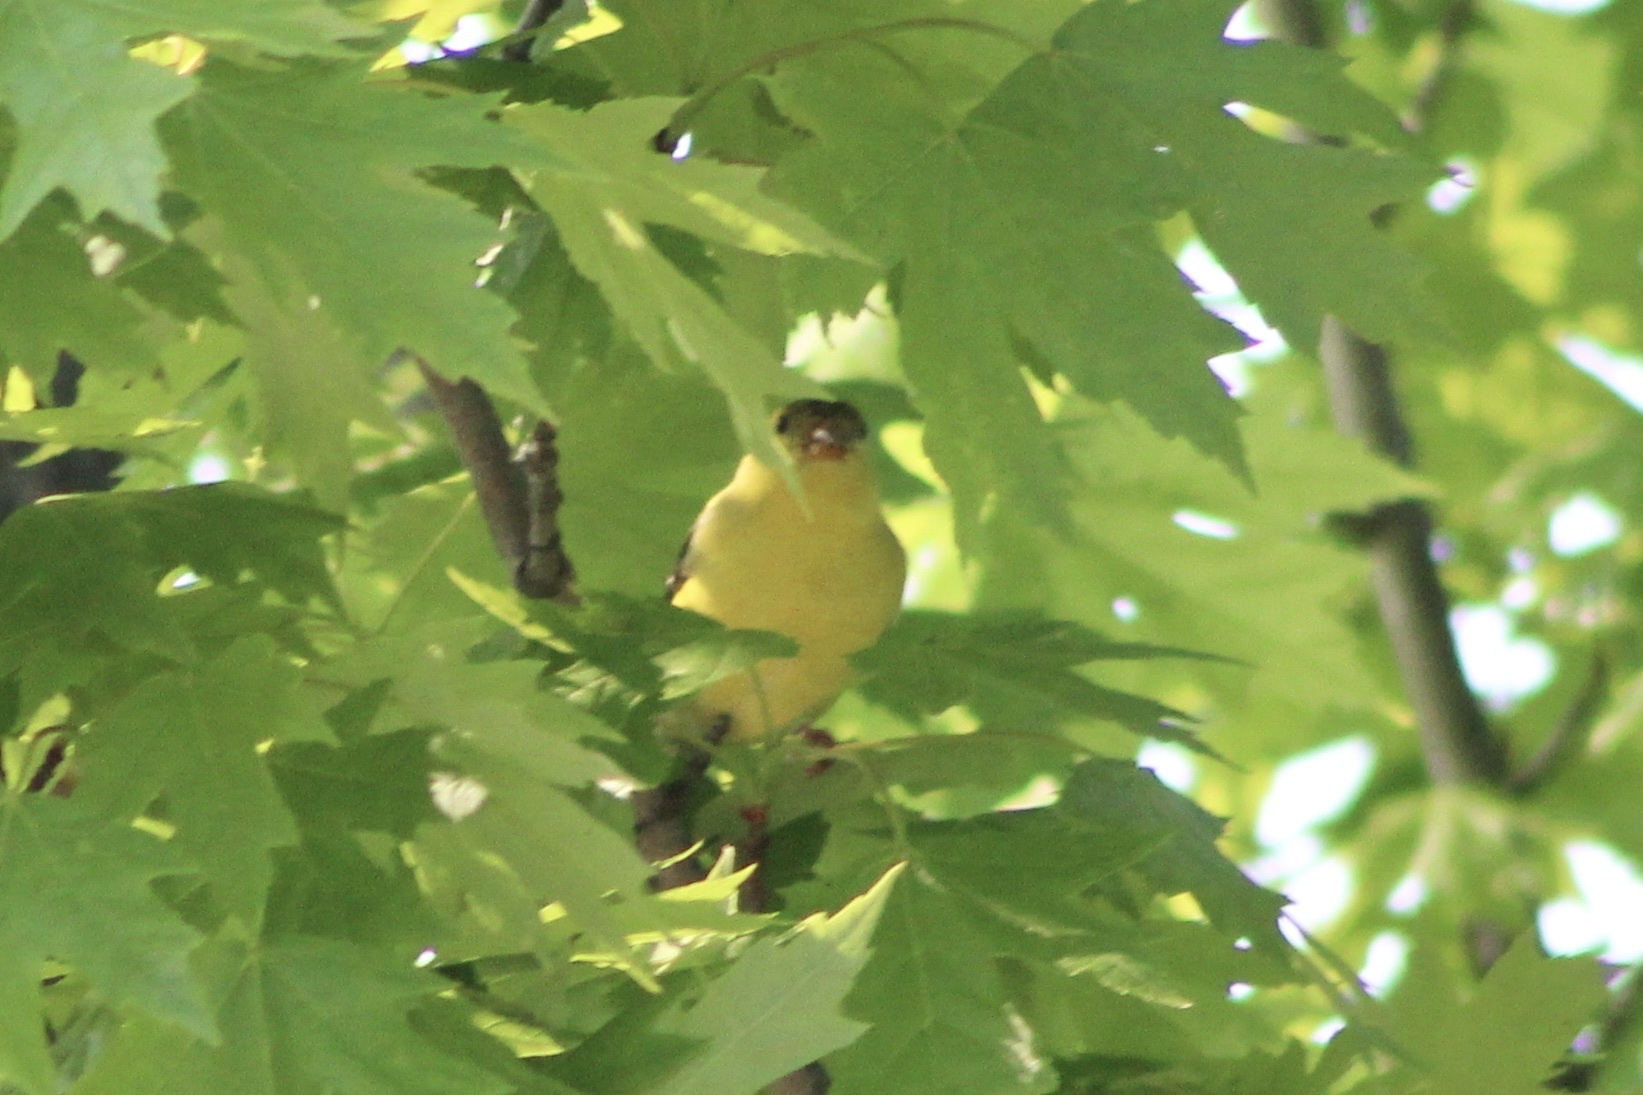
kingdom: Animalia
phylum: Chordata
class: Aves
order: Passeriformes
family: Fringillidae
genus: Spinus
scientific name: Spinus tristis
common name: American goldfinch
